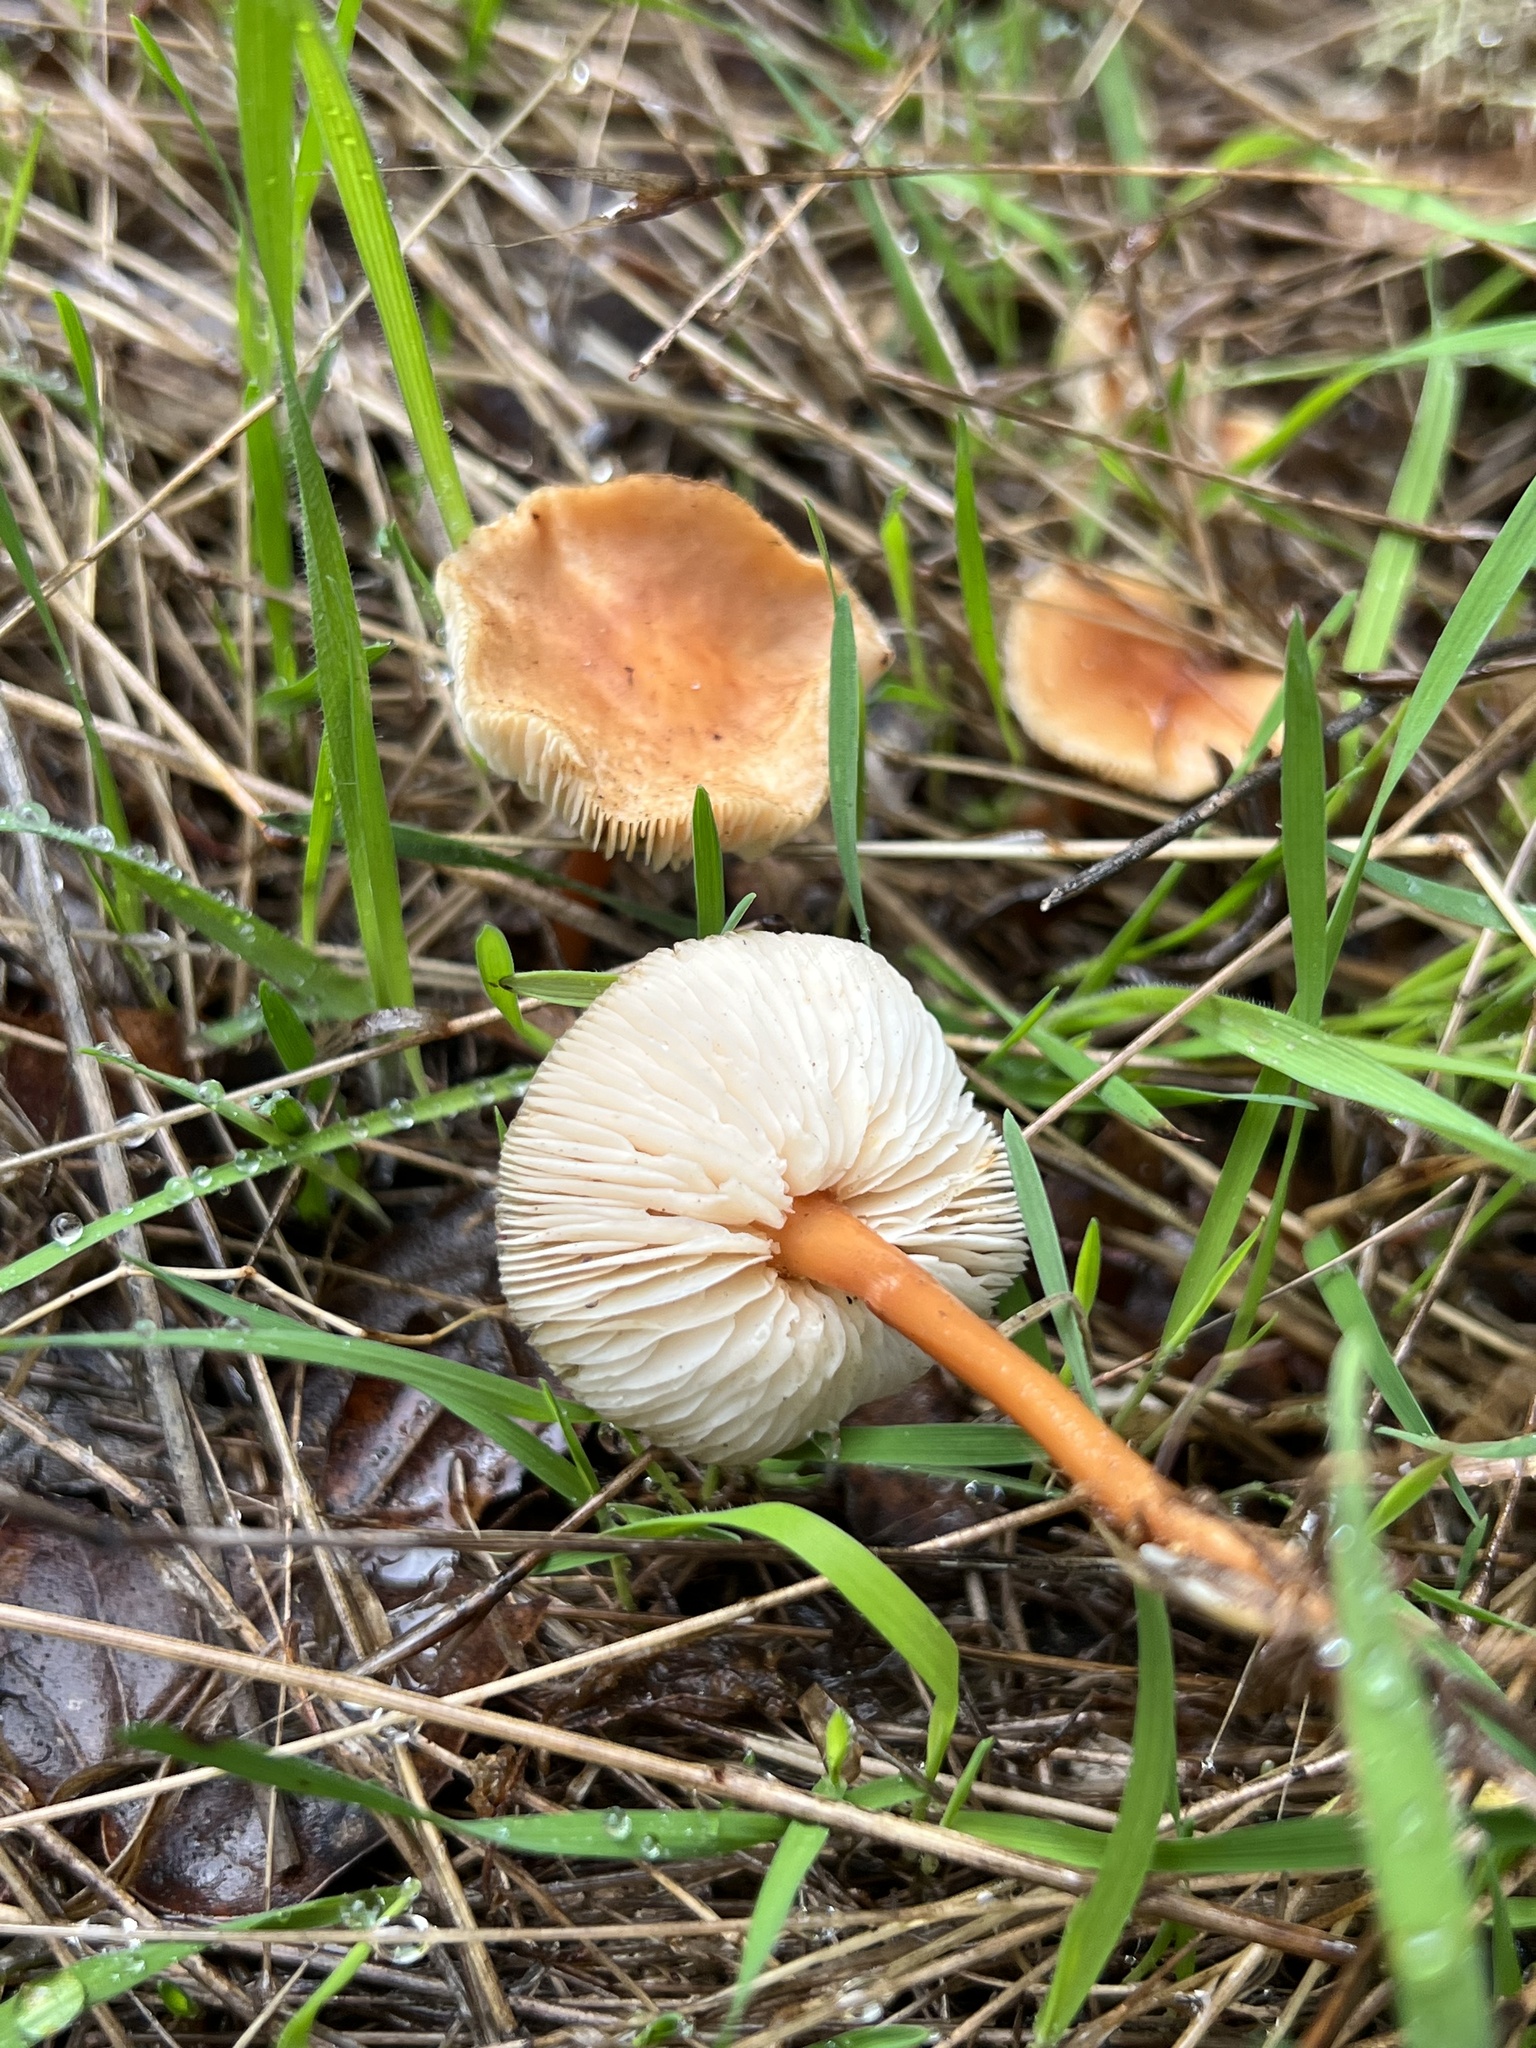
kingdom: Fungi
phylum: Basidiomycota
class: Agaricomycetes
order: Agaricales
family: Omphalotaceae
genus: Gymnopus
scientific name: Gymnopus dryophilus
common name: Penny top
